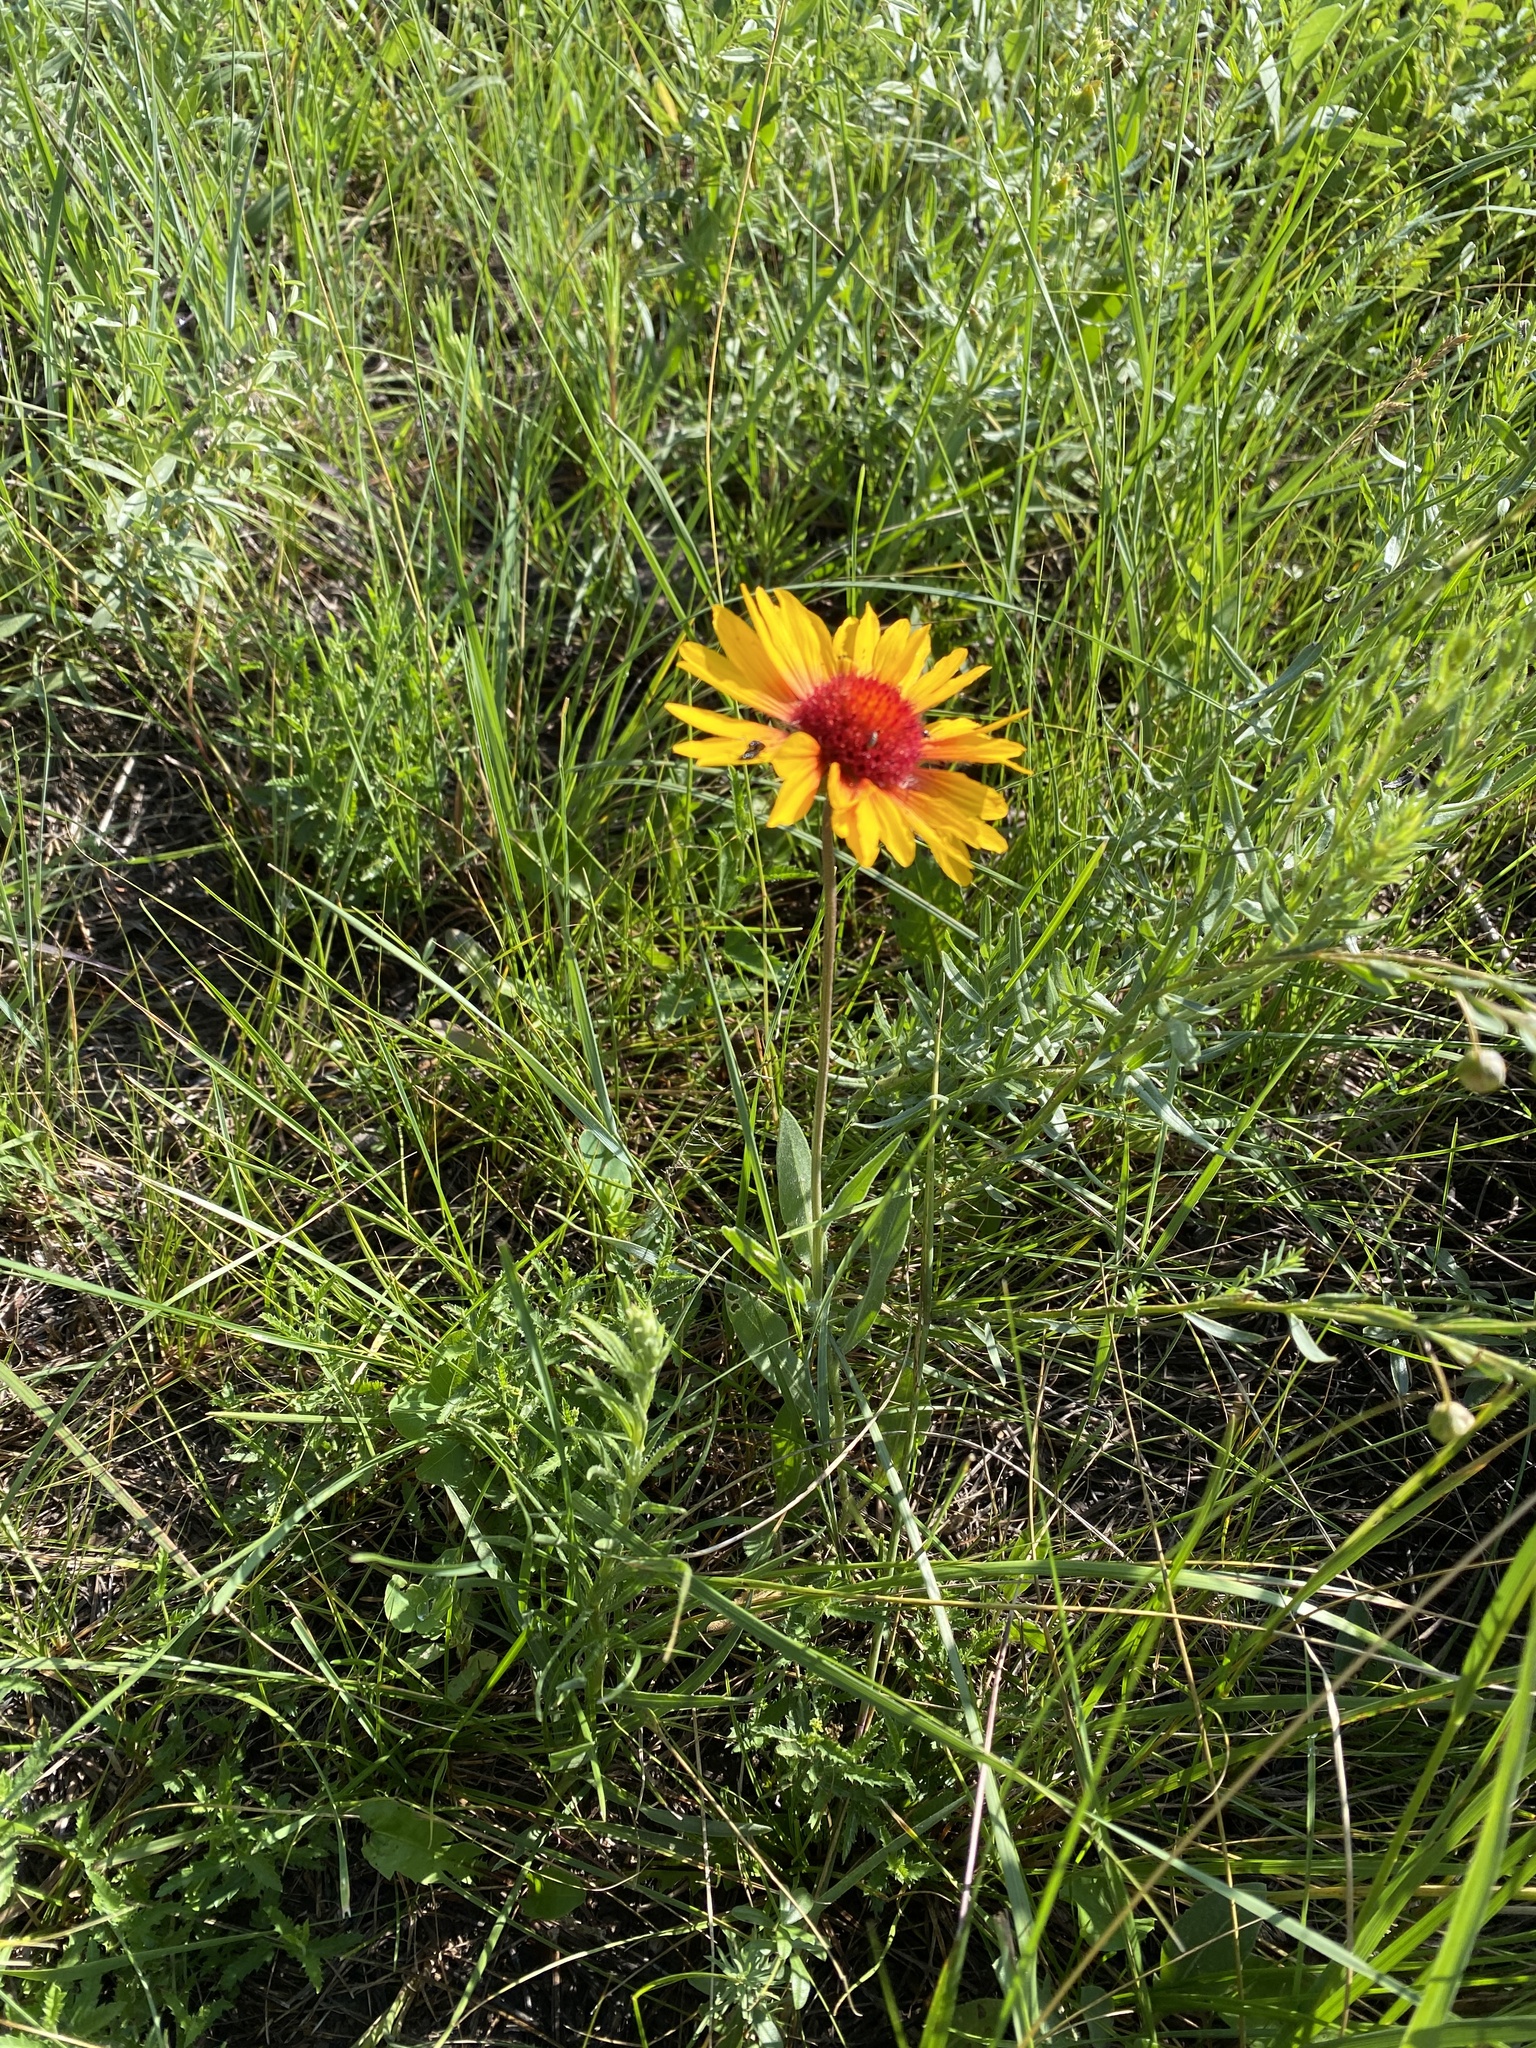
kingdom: Plantae
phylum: Tracheophyta
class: Magnoliopsida
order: Asterales
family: Asteraceae
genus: Gaillardia
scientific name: Gaillardia aristata
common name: Blanket-flower
